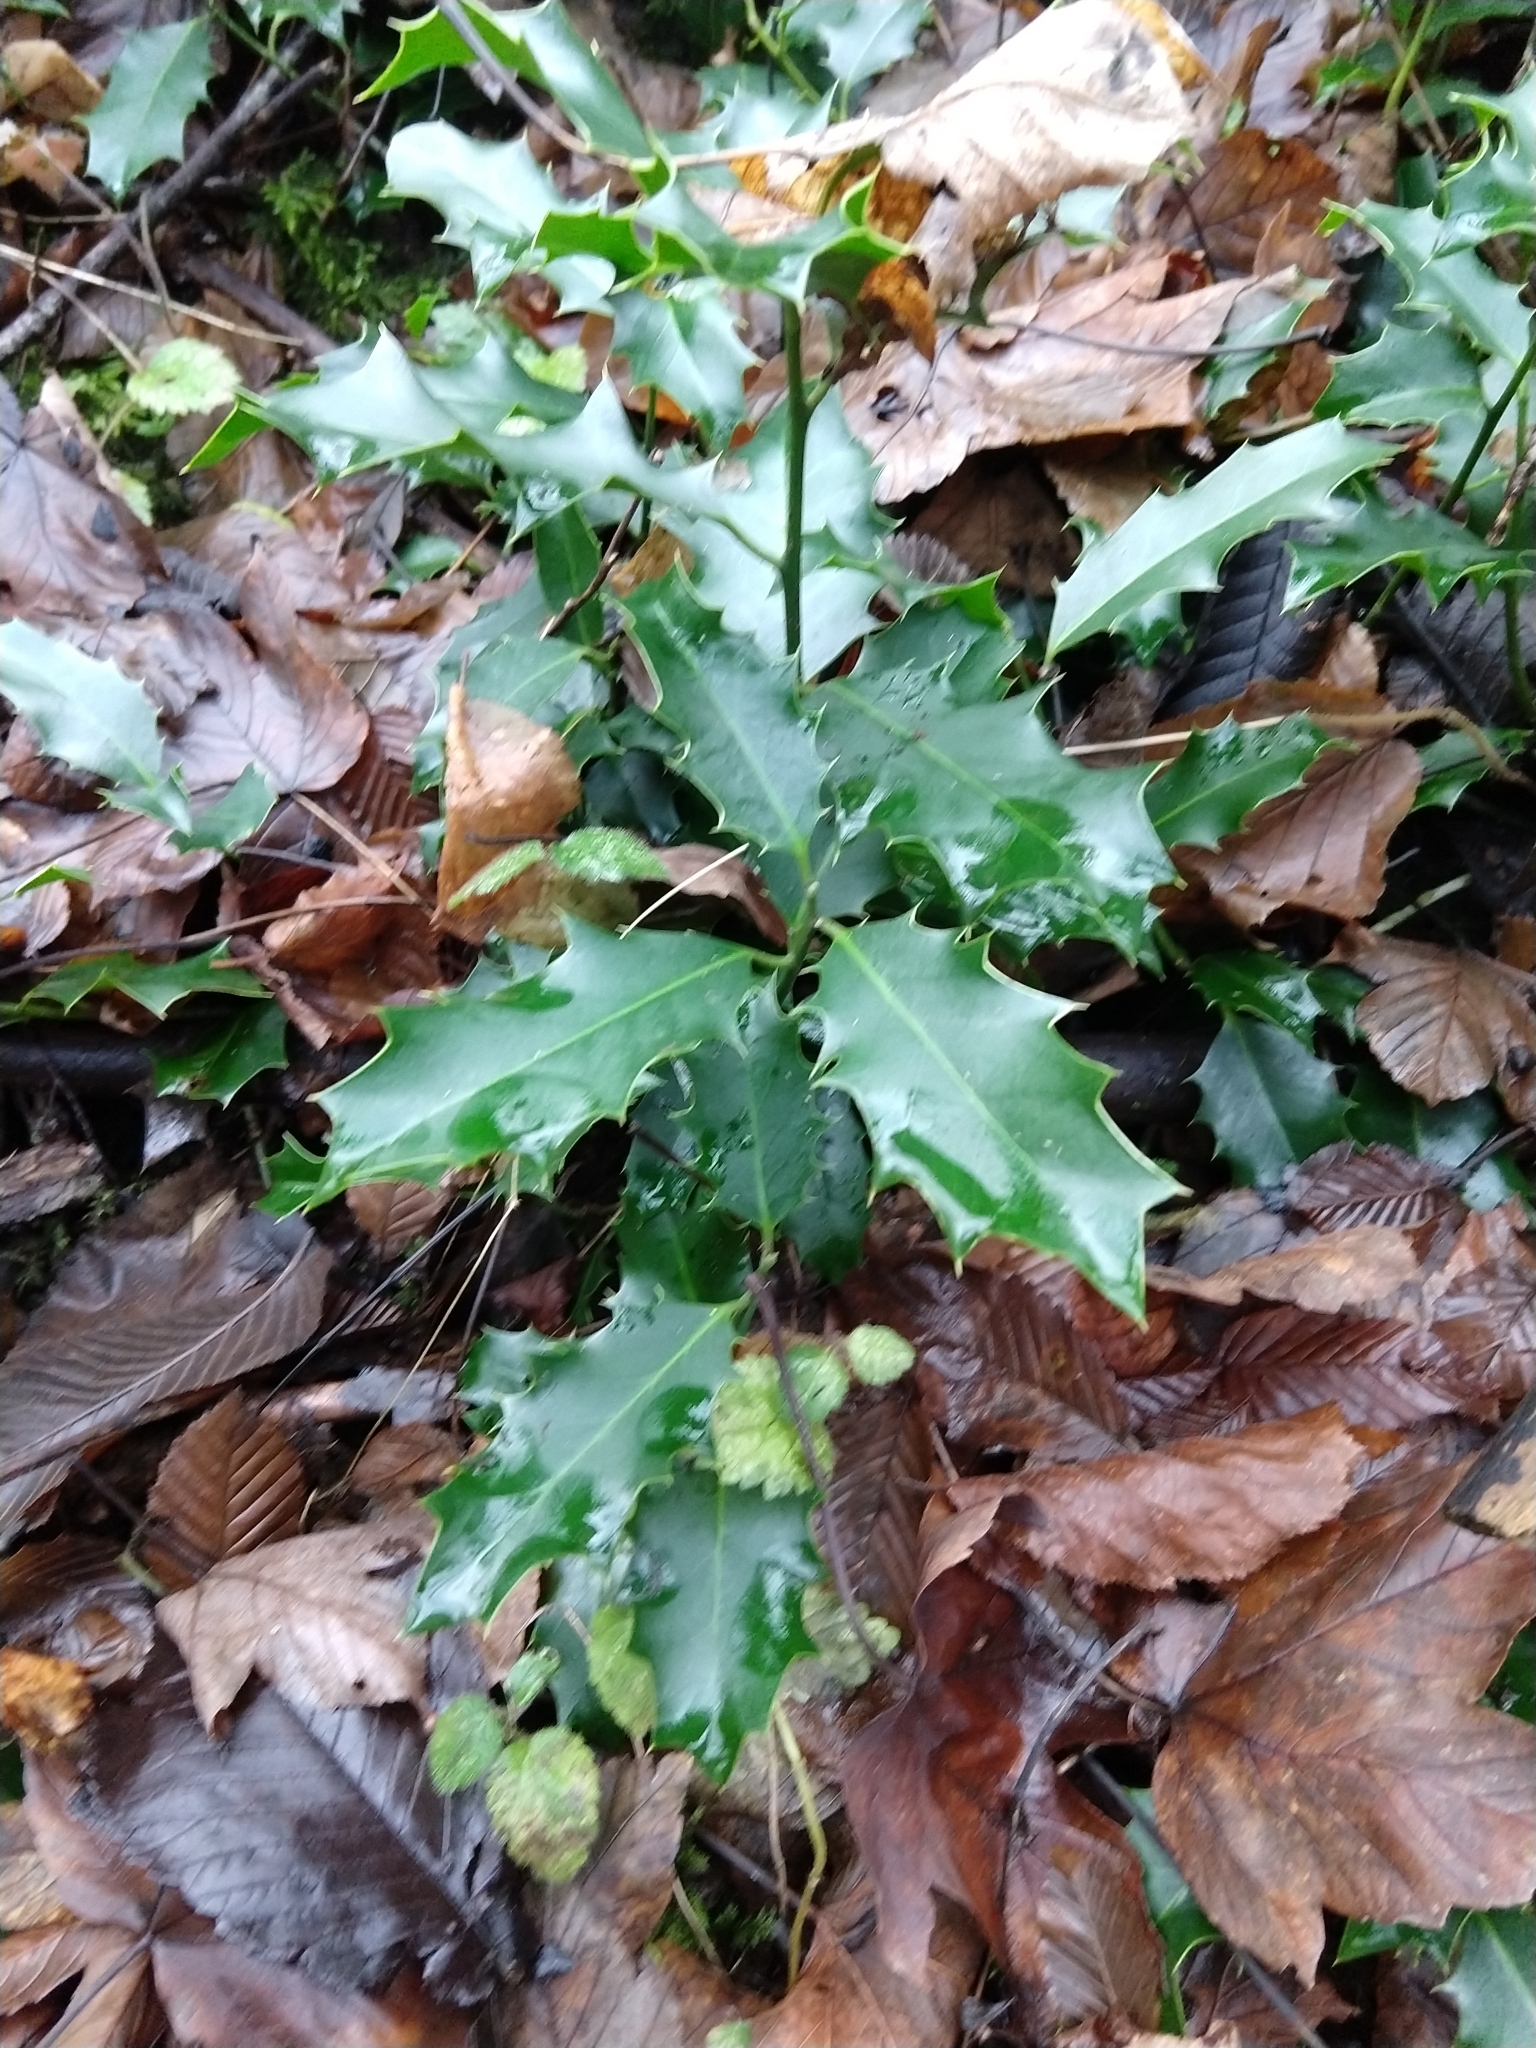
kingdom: Plantae
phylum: Tracheophyta
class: Magnoliopsida
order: Aquifoliales
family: Aquifoliaceae
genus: Ilex
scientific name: Ilex aquifolium
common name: English holly
